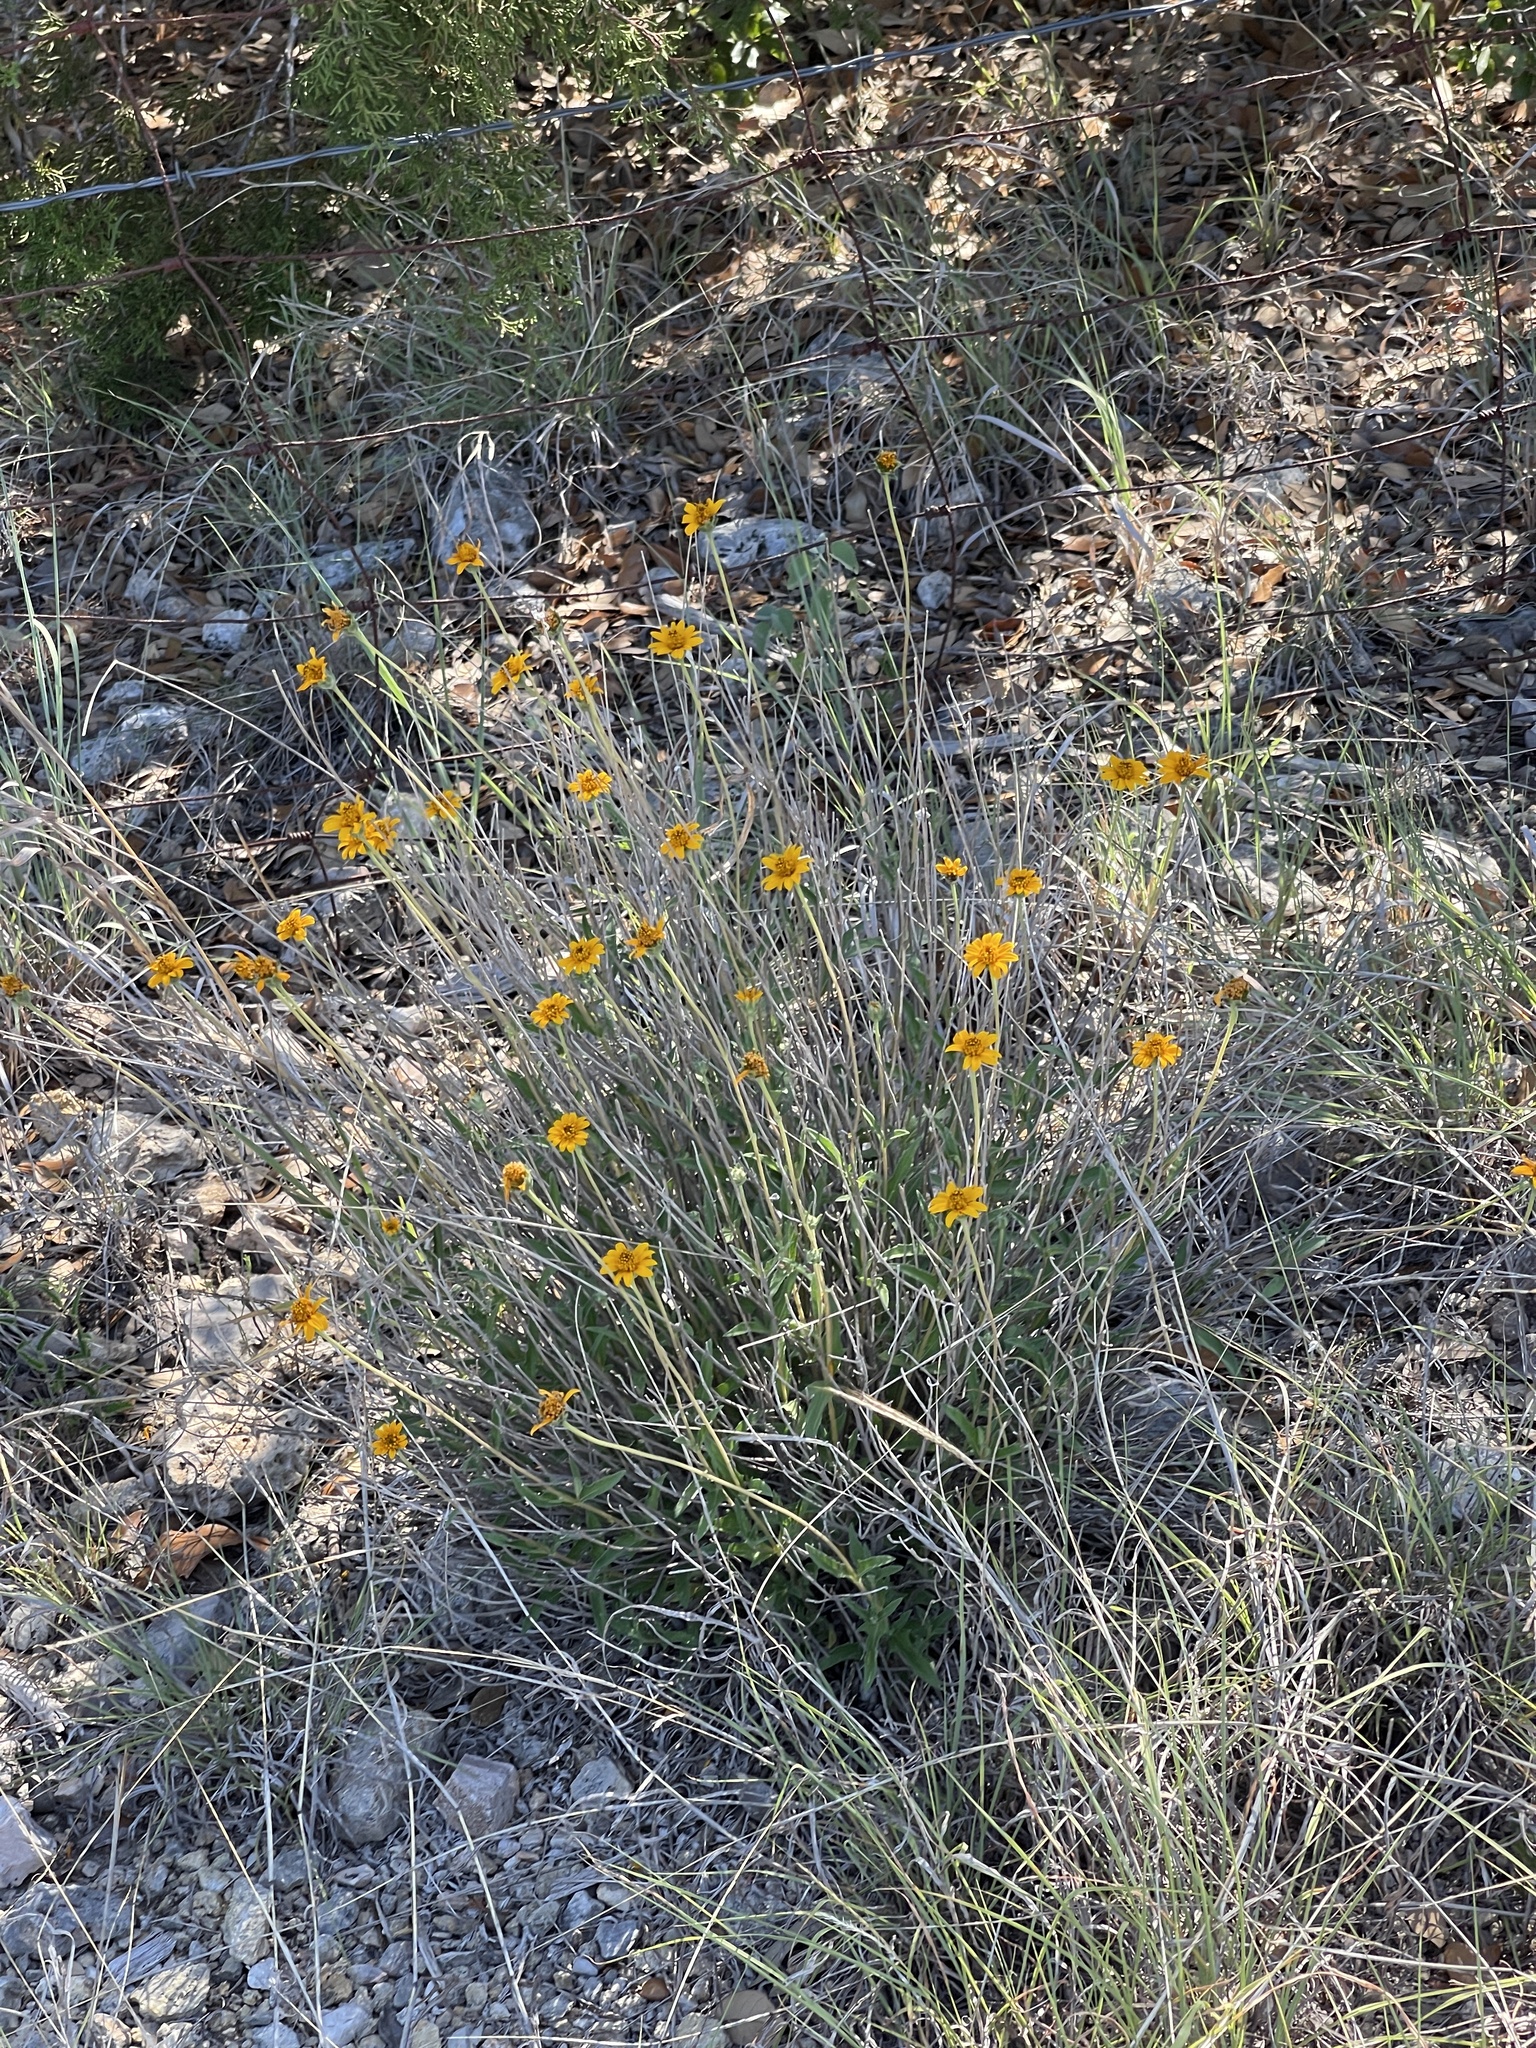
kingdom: Plantae
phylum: Tracheophyta
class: Magnoliopsida
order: Asterales
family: Asteraceae
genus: Wedelia
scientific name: Wedelia acapulcensis
